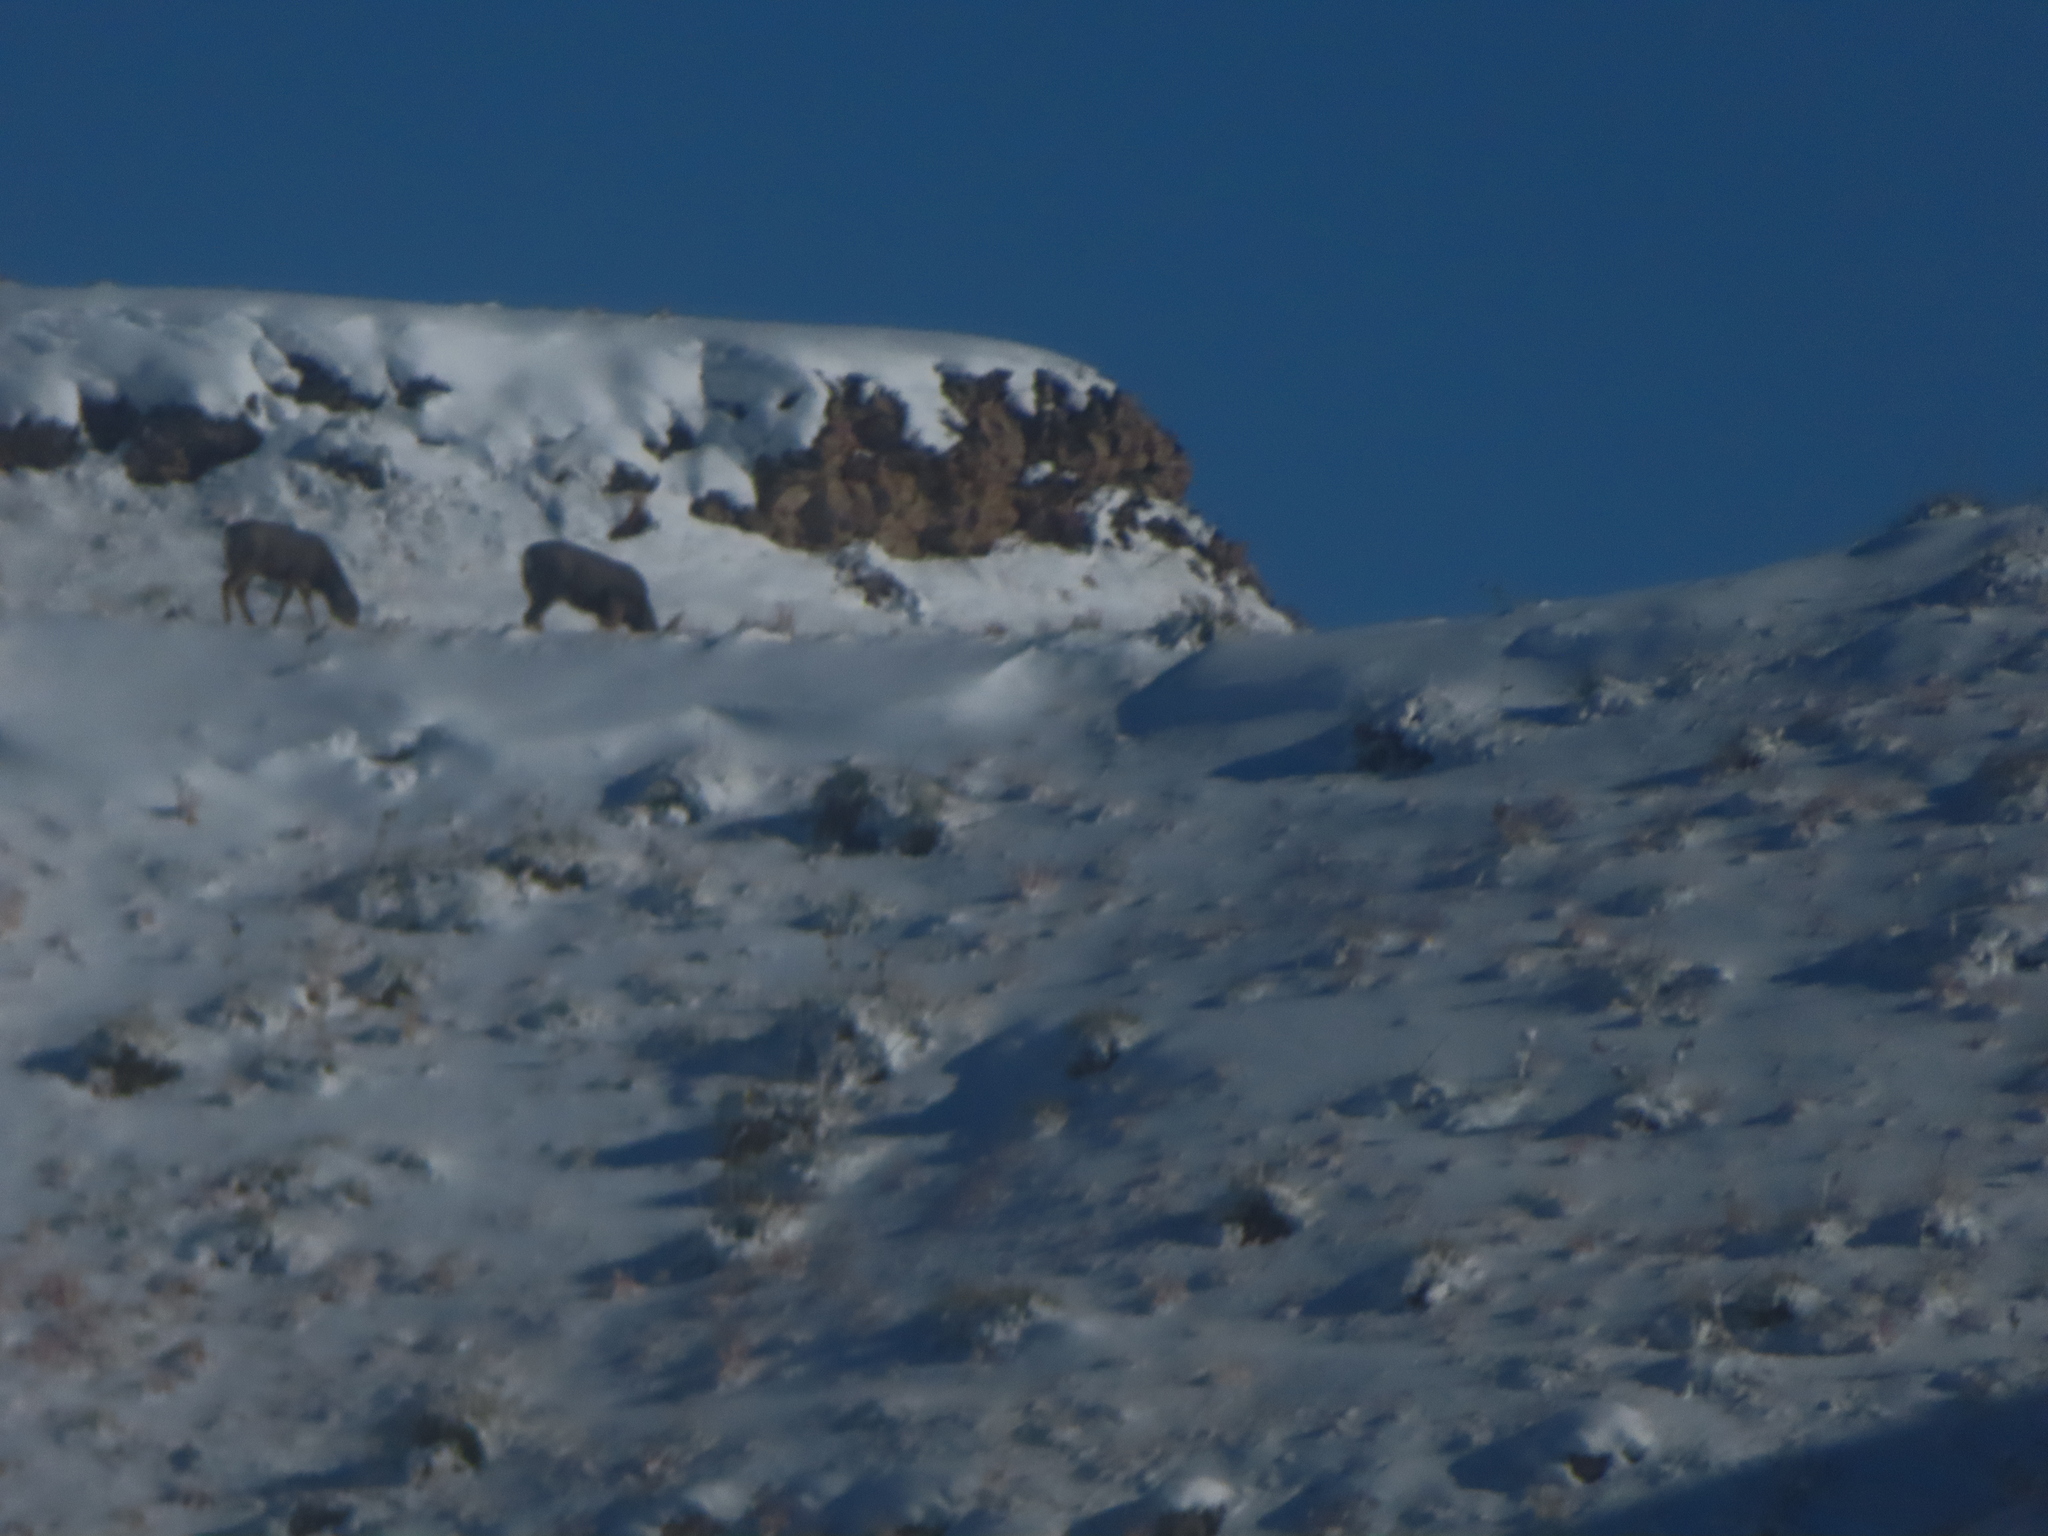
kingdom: Animalia
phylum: Chordata
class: Mammalia
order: Artiodactyla
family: Cervidae
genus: Odocoileus
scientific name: Odocoileus hemionus
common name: Mule deer
